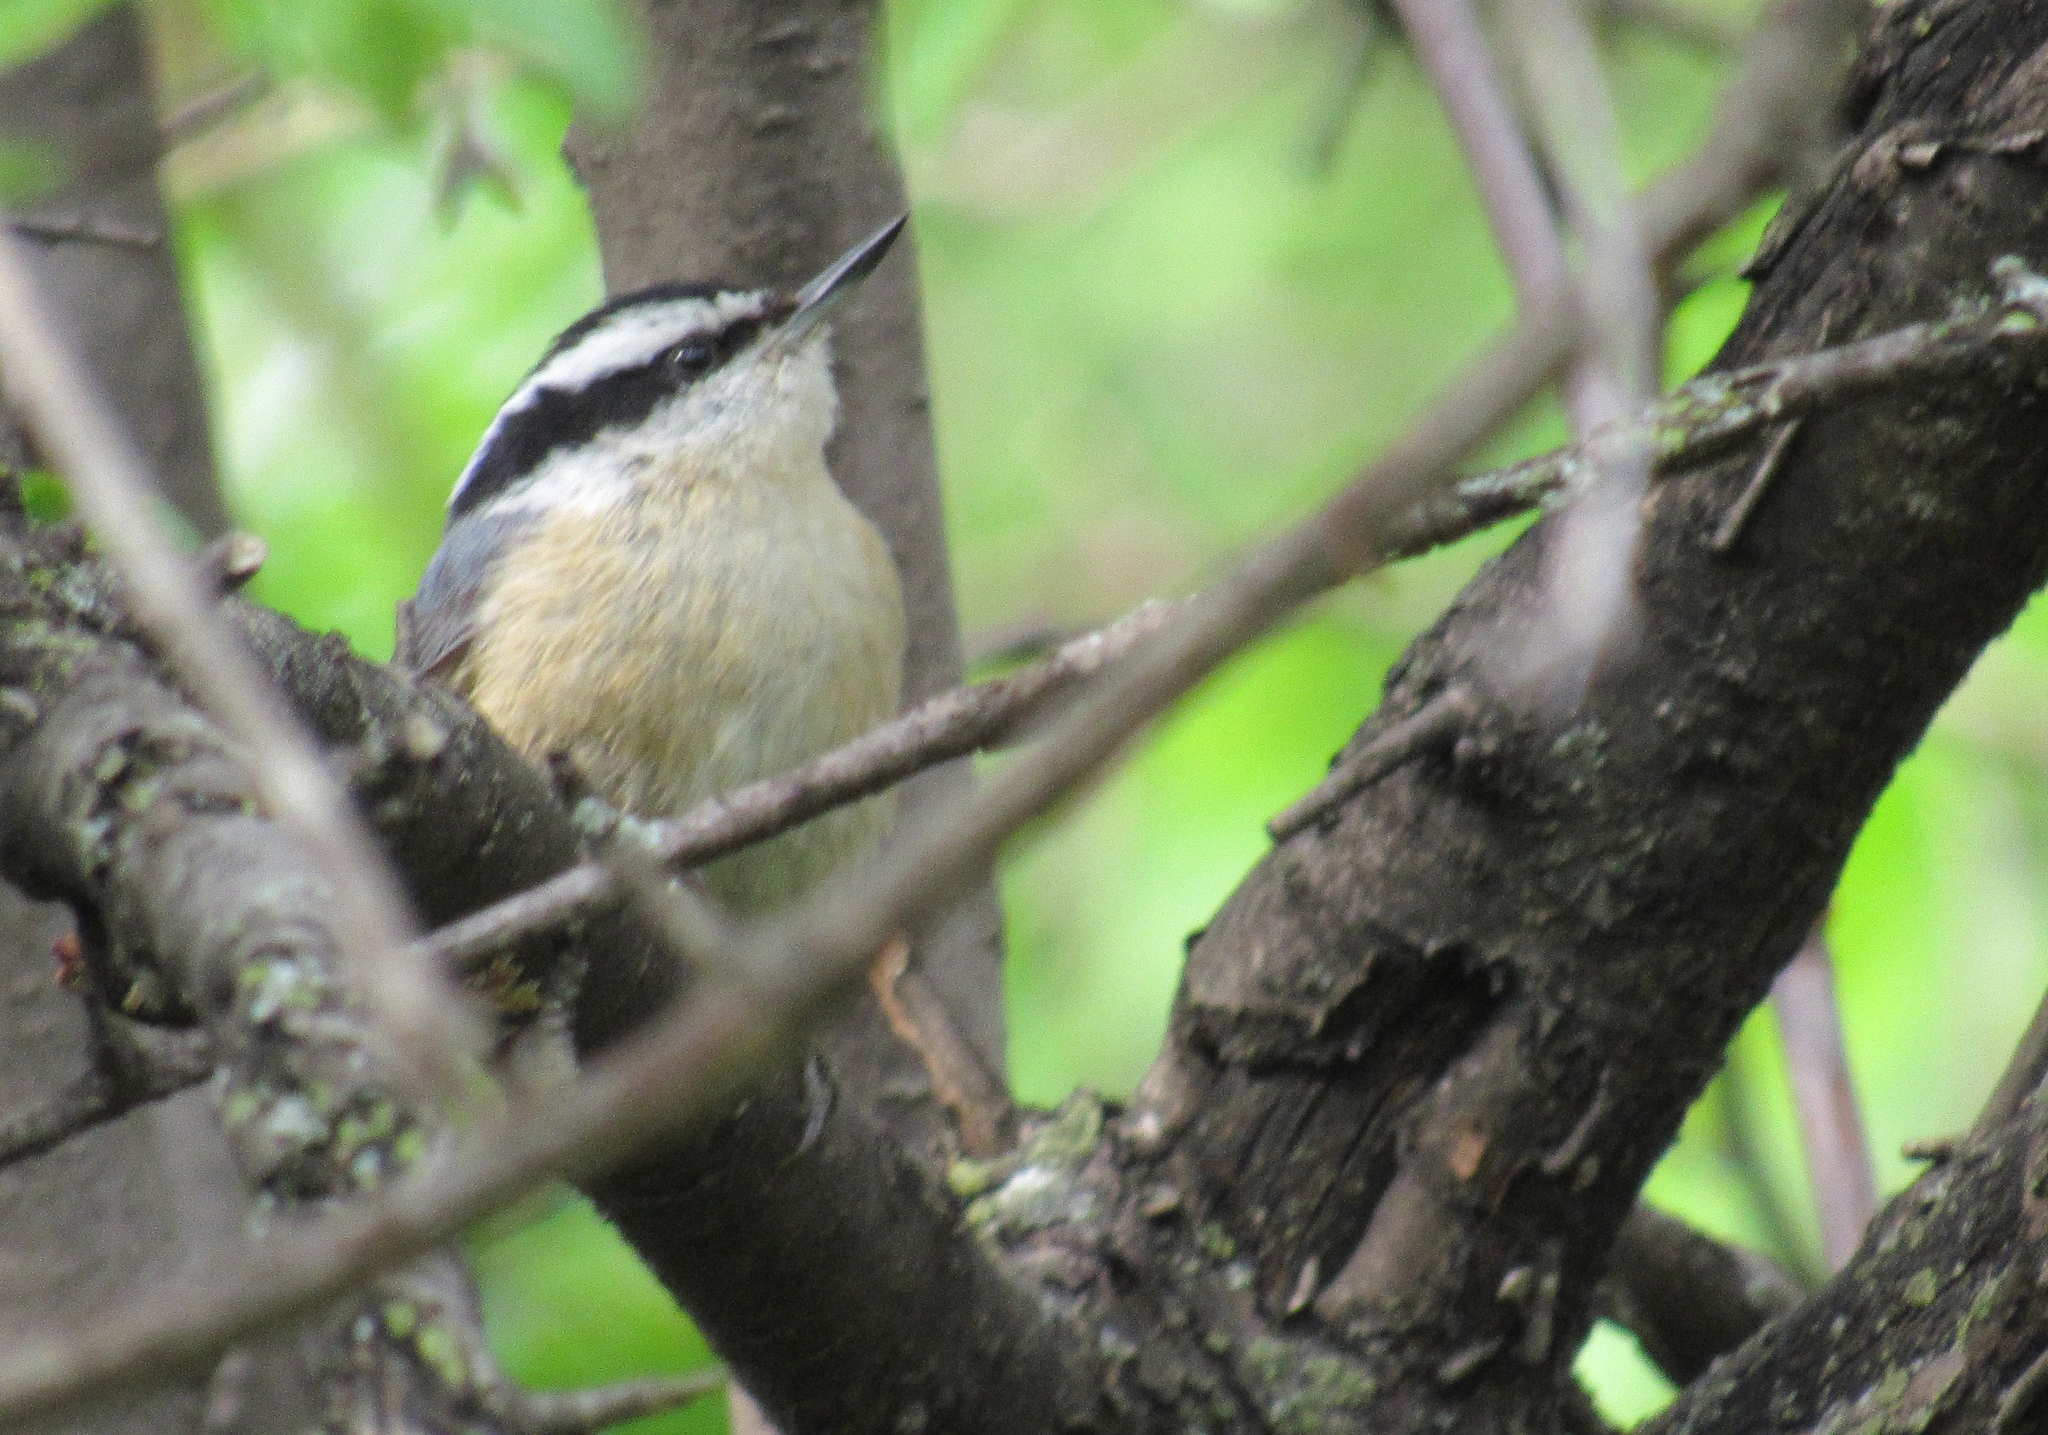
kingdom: Animalia
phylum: Chordata
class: Aves
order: Passeriformes
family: Sittidae
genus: Sitta
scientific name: Sitta canadensis
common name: Red-breasted nuthatch
